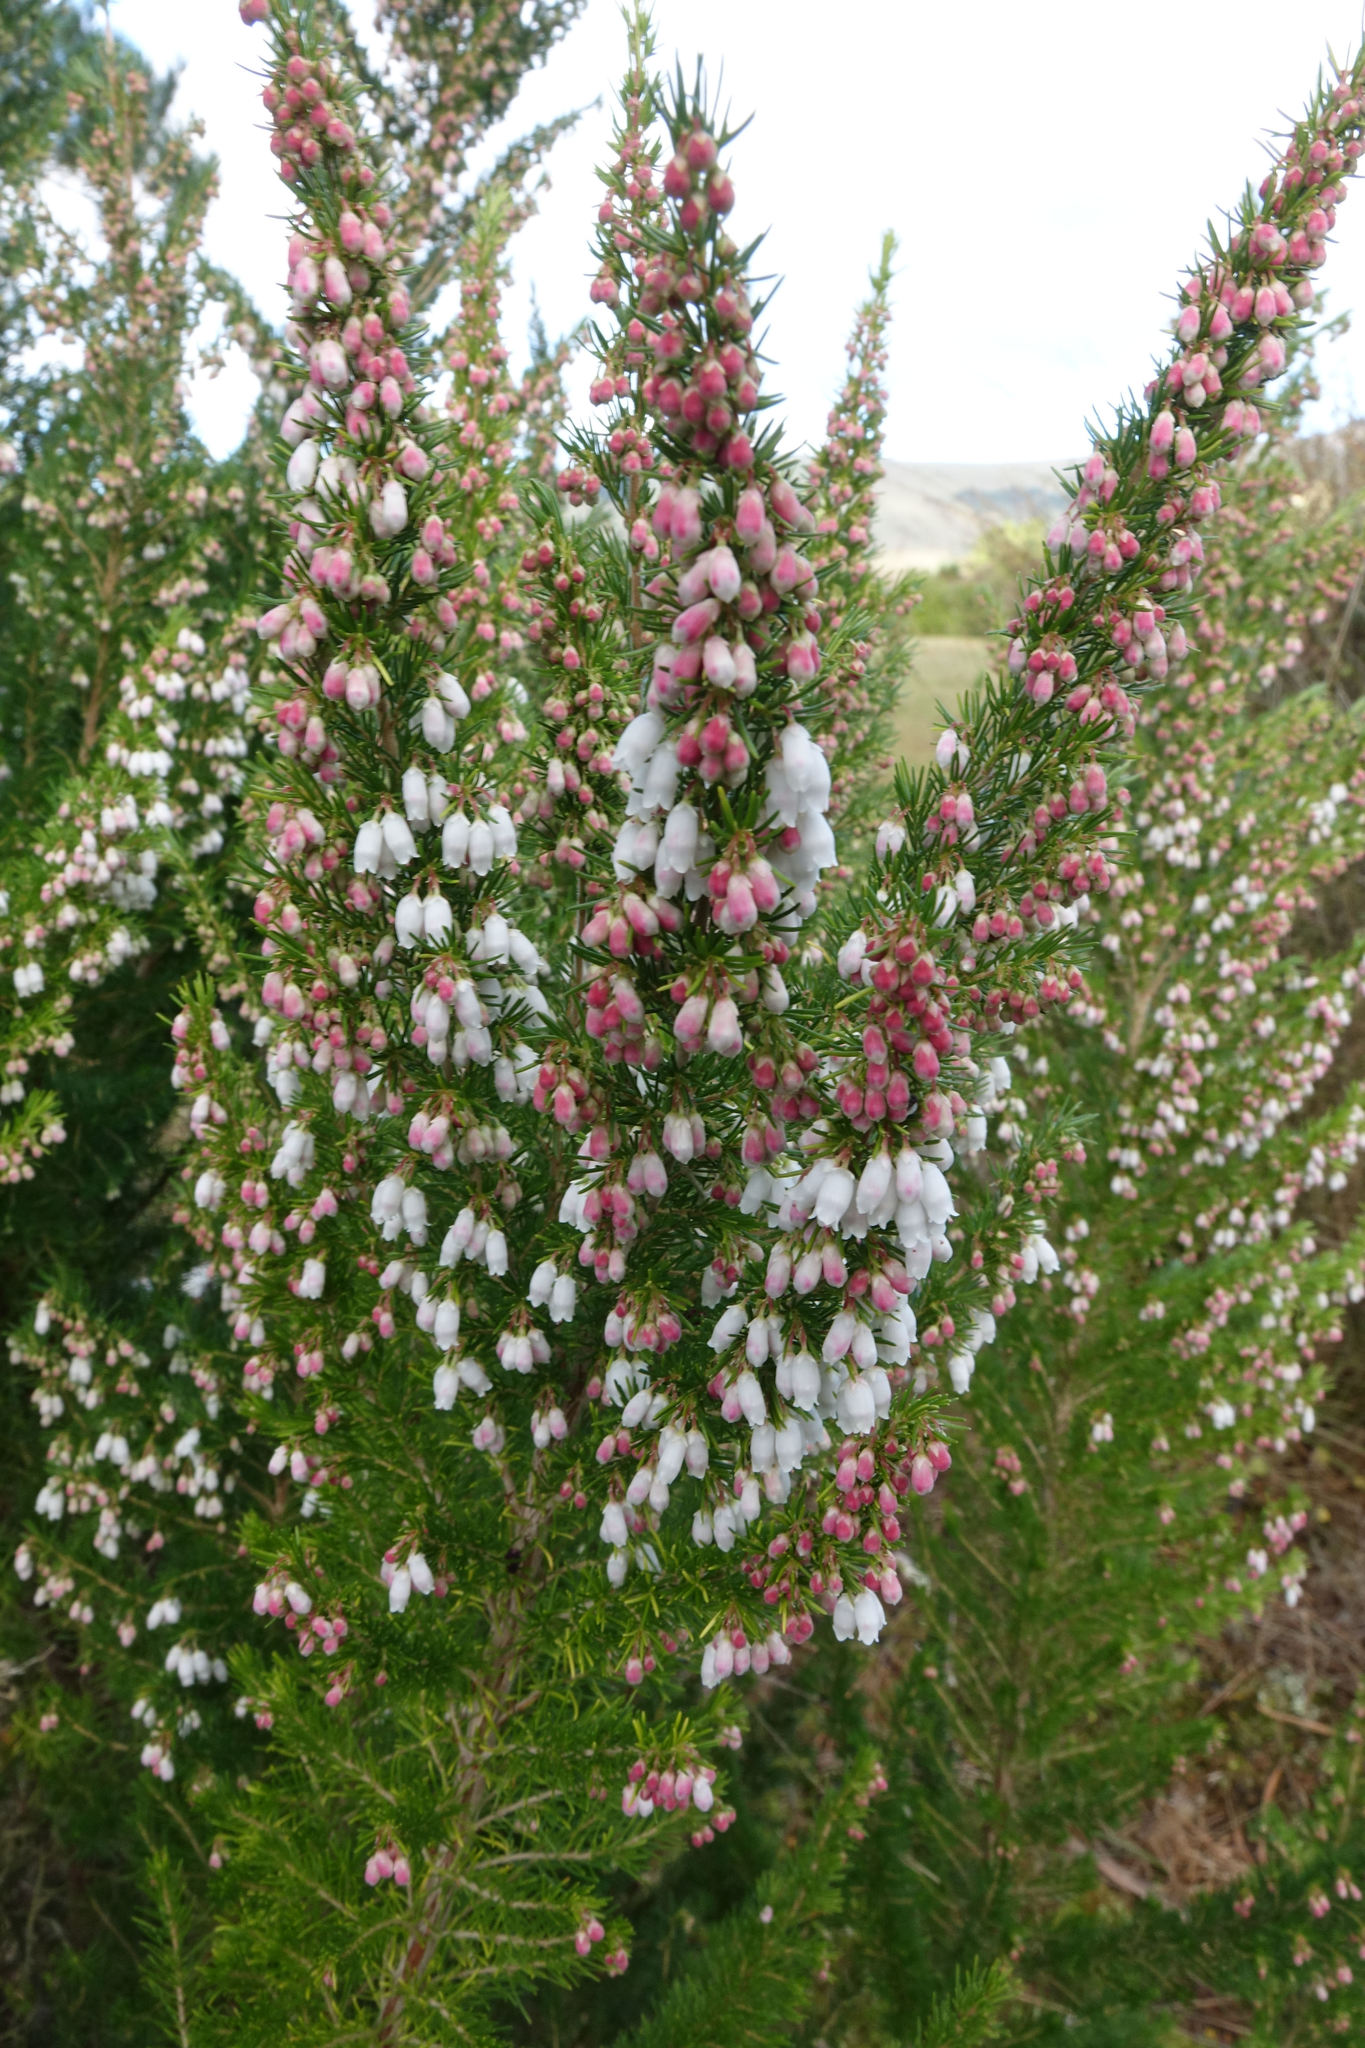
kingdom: Plantae
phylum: Tracheophyta
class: Magnoliopsida
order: Ericales
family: Ericaceae
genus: Erica
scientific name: Erica lusitanica
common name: Spanish heath
